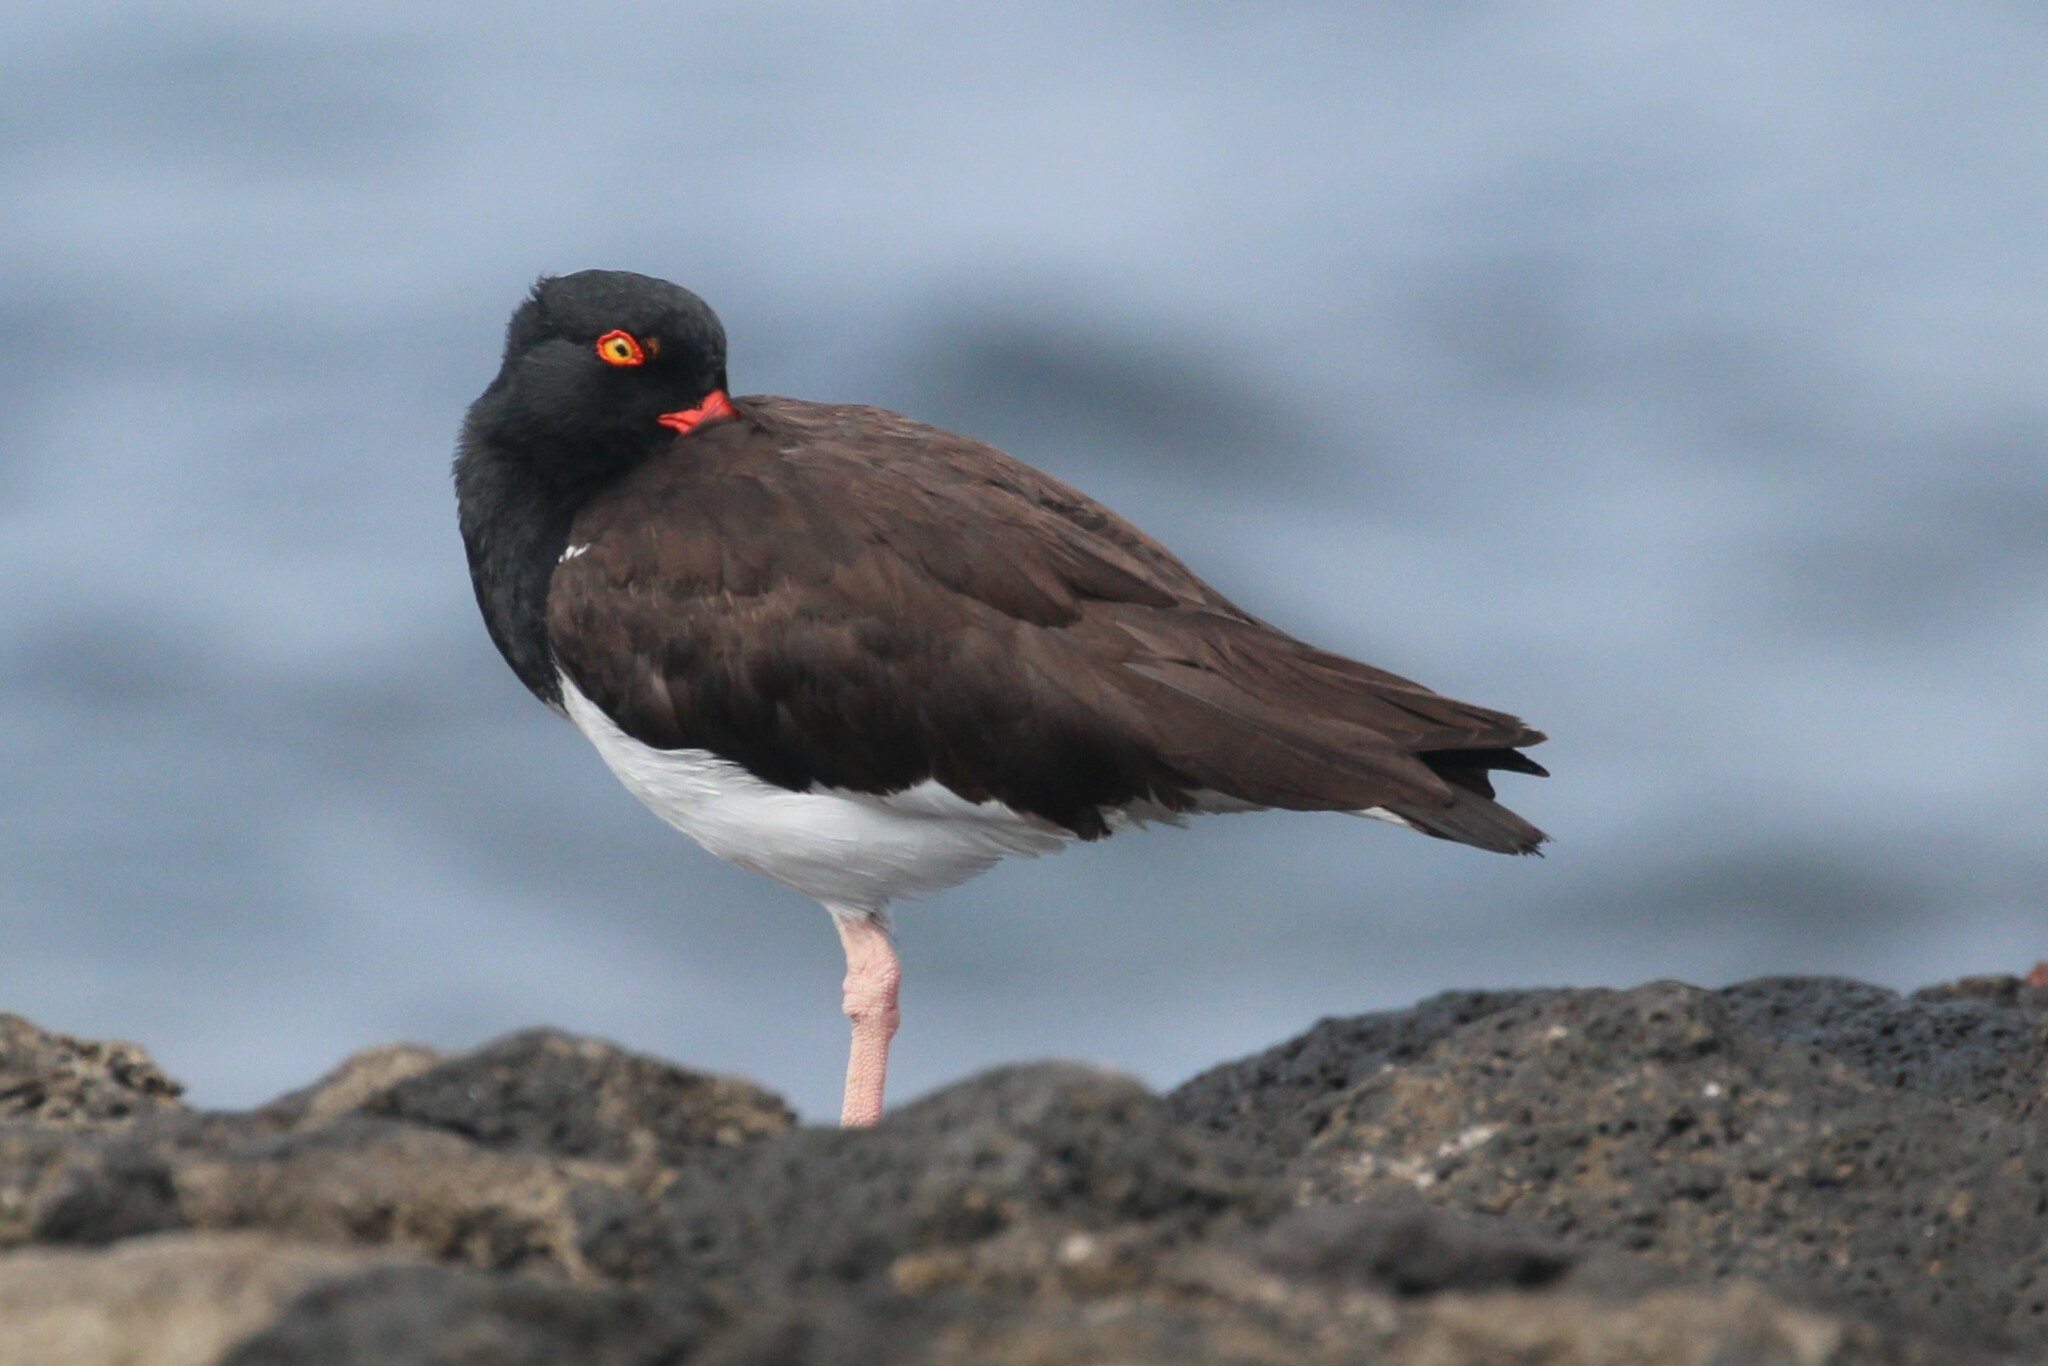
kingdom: Animalia
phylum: Chordata
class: Aves
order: Charadriiformes
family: Haematopodidae
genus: Haematopus
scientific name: Haematopus palliatus
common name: American oystercatcher
